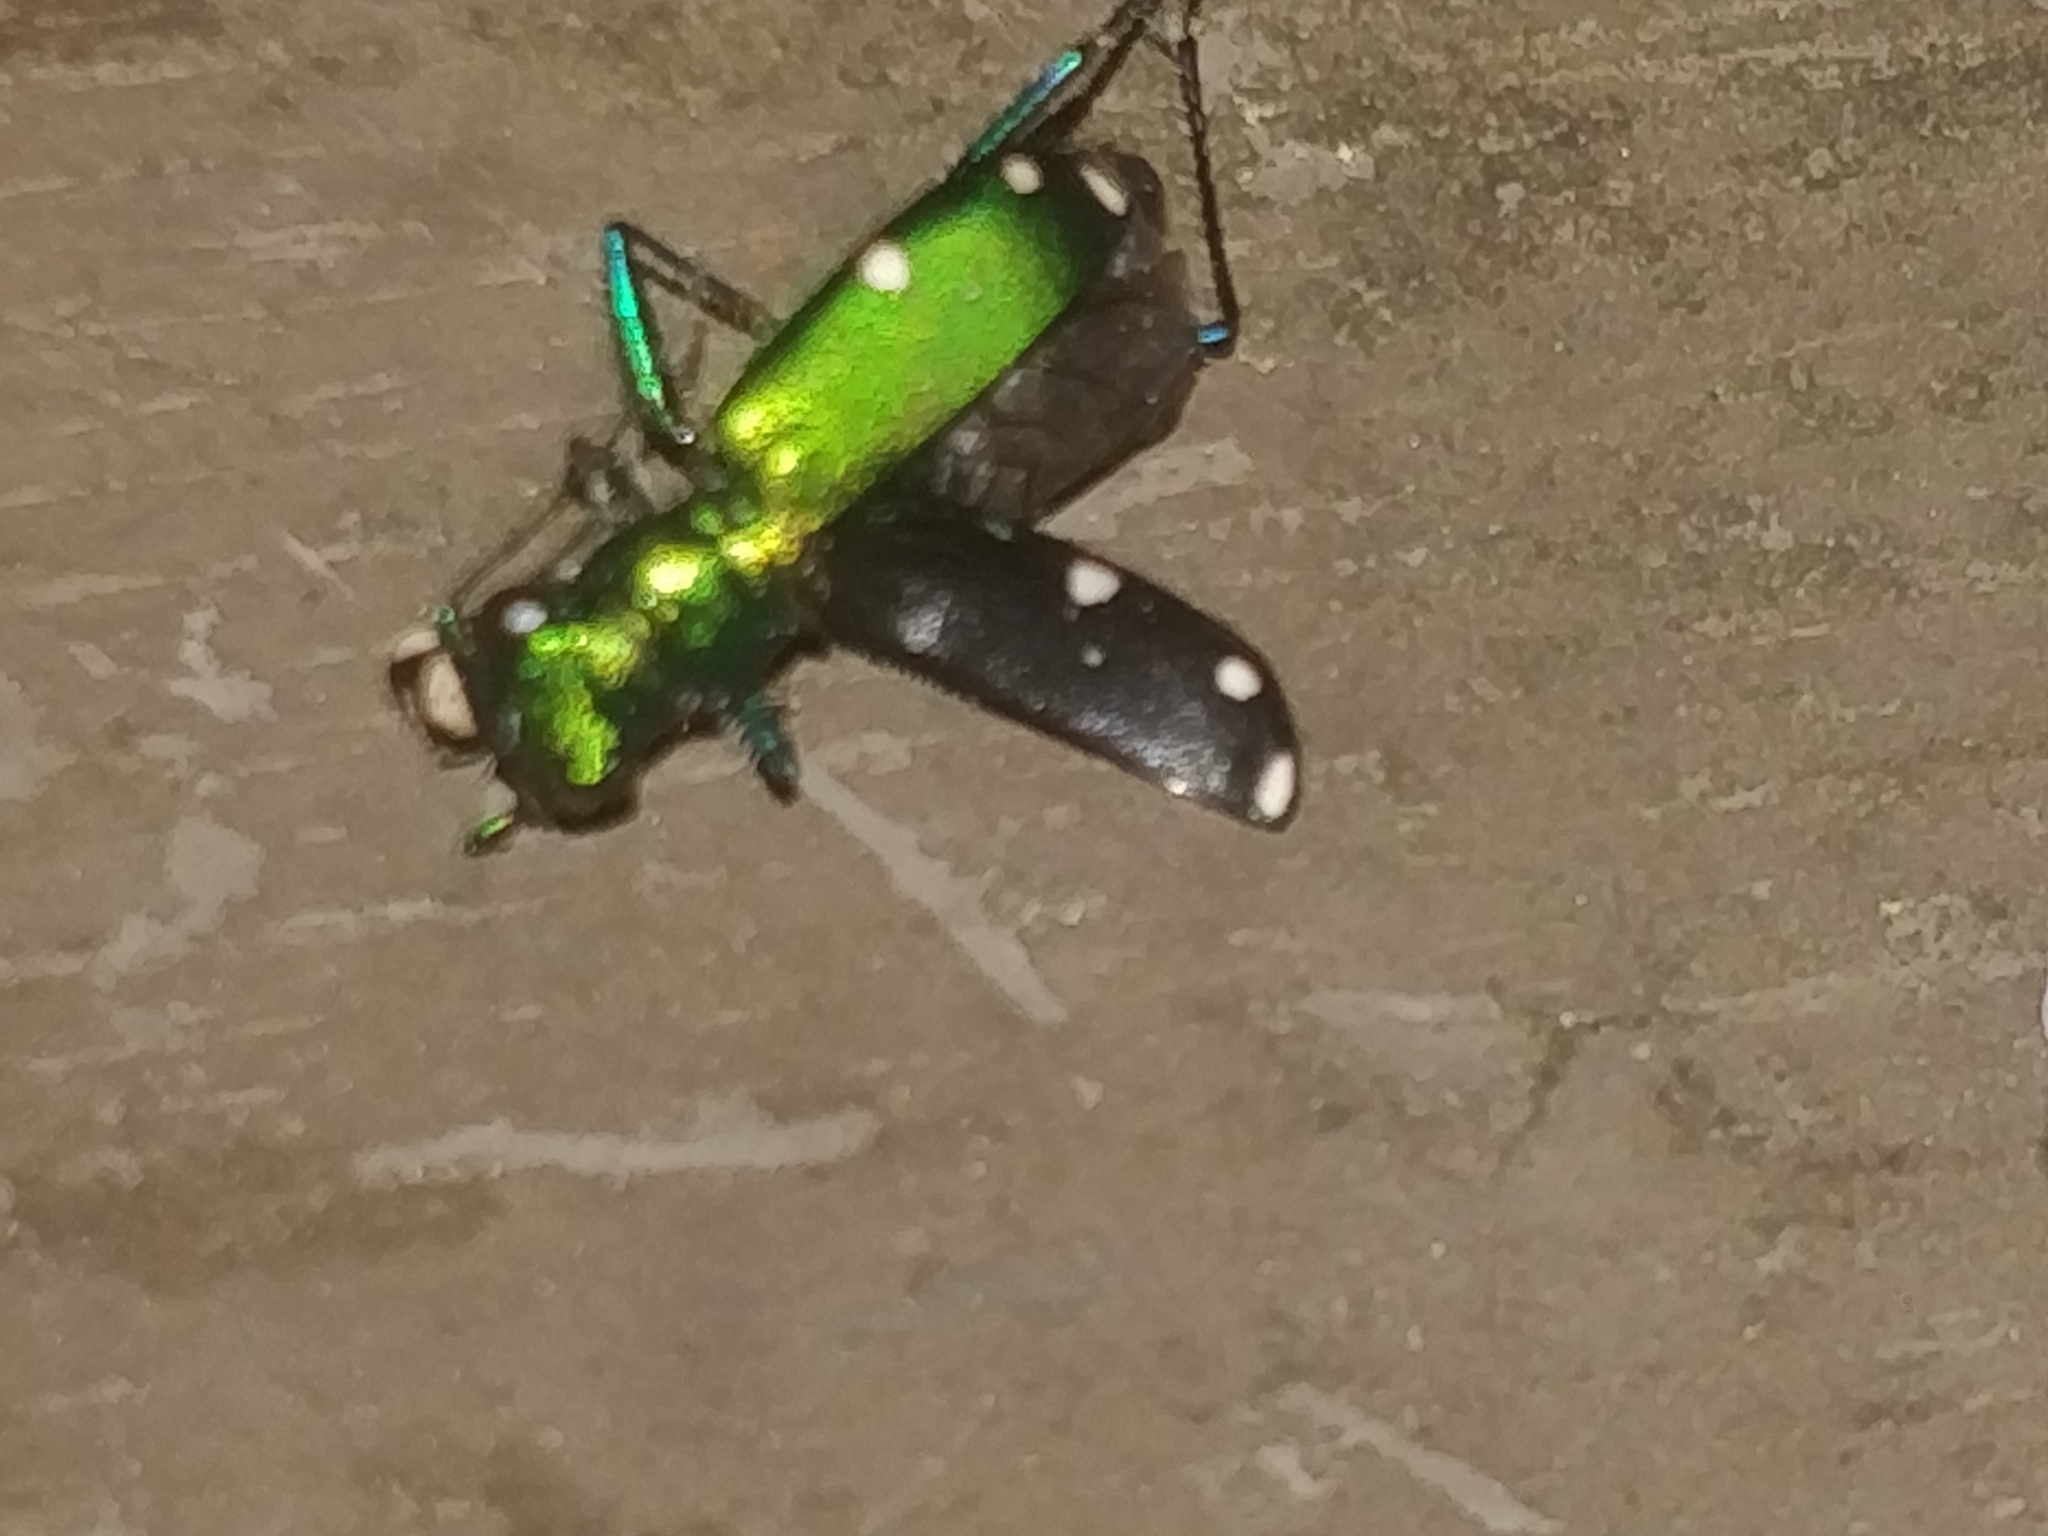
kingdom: Animalia
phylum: Arthropoda
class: Insecta
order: Coleoptera
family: Carabidae
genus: Cicindela
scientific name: Cicindela sexguttata
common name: Six-spotted tiger beetle
